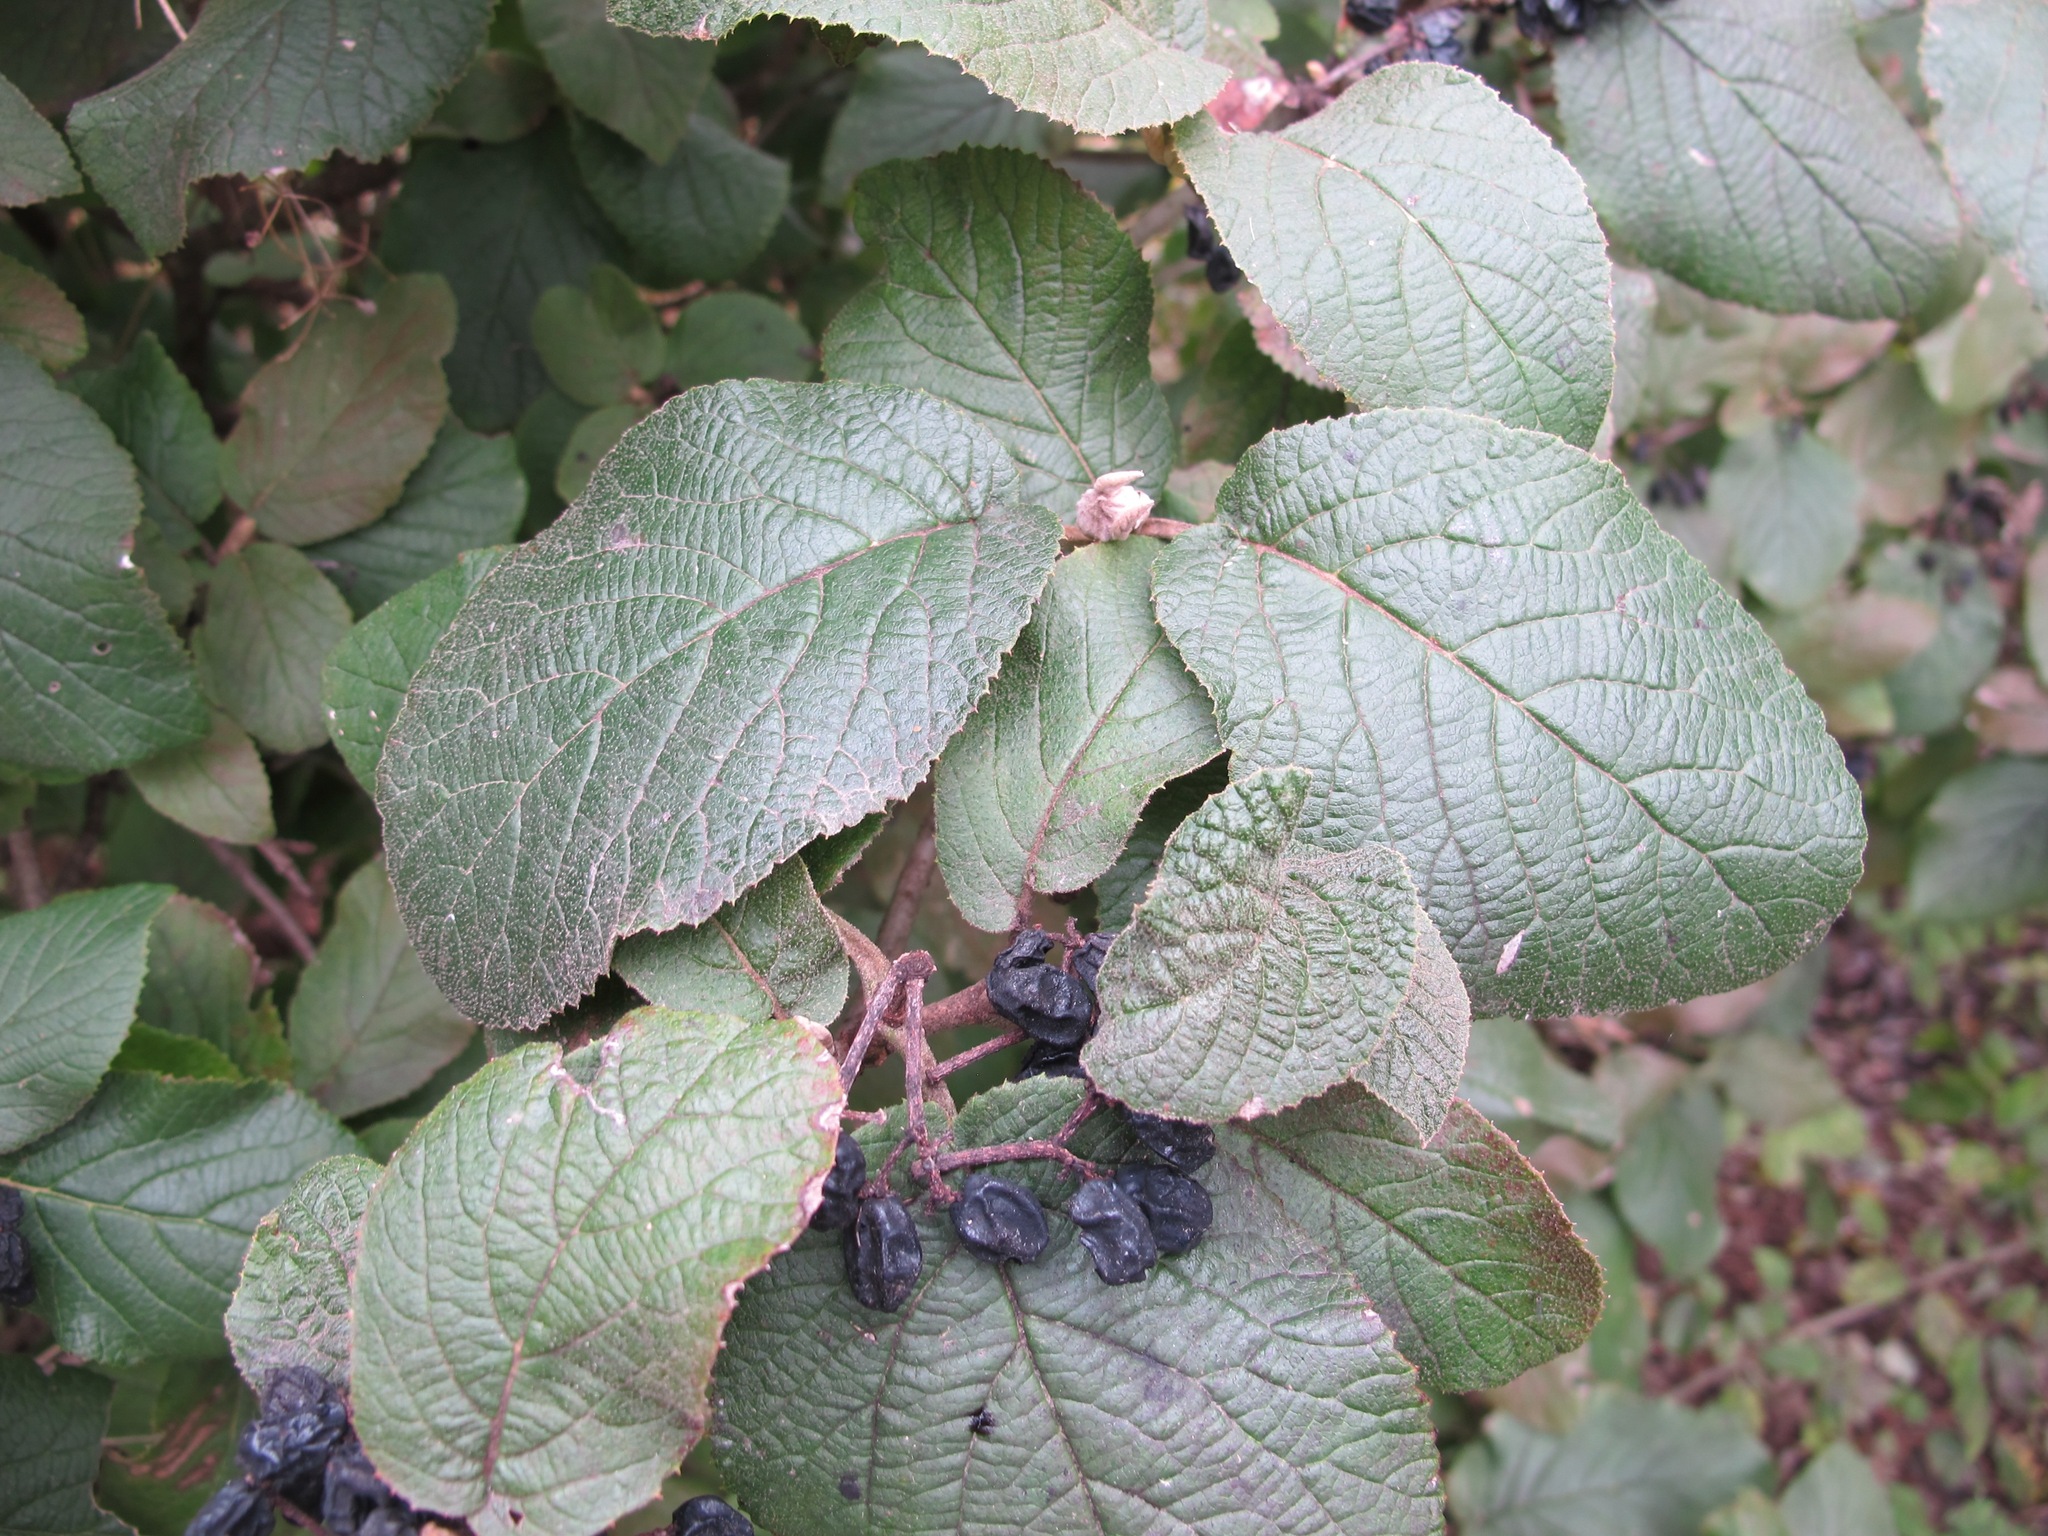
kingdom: Plantae
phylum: Tracheophyta
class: Magnoliopsida
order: Dipsacales
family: Viburnaceae
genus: Viburnum
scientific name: Viburnum lantana
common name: Wayfaring tree
